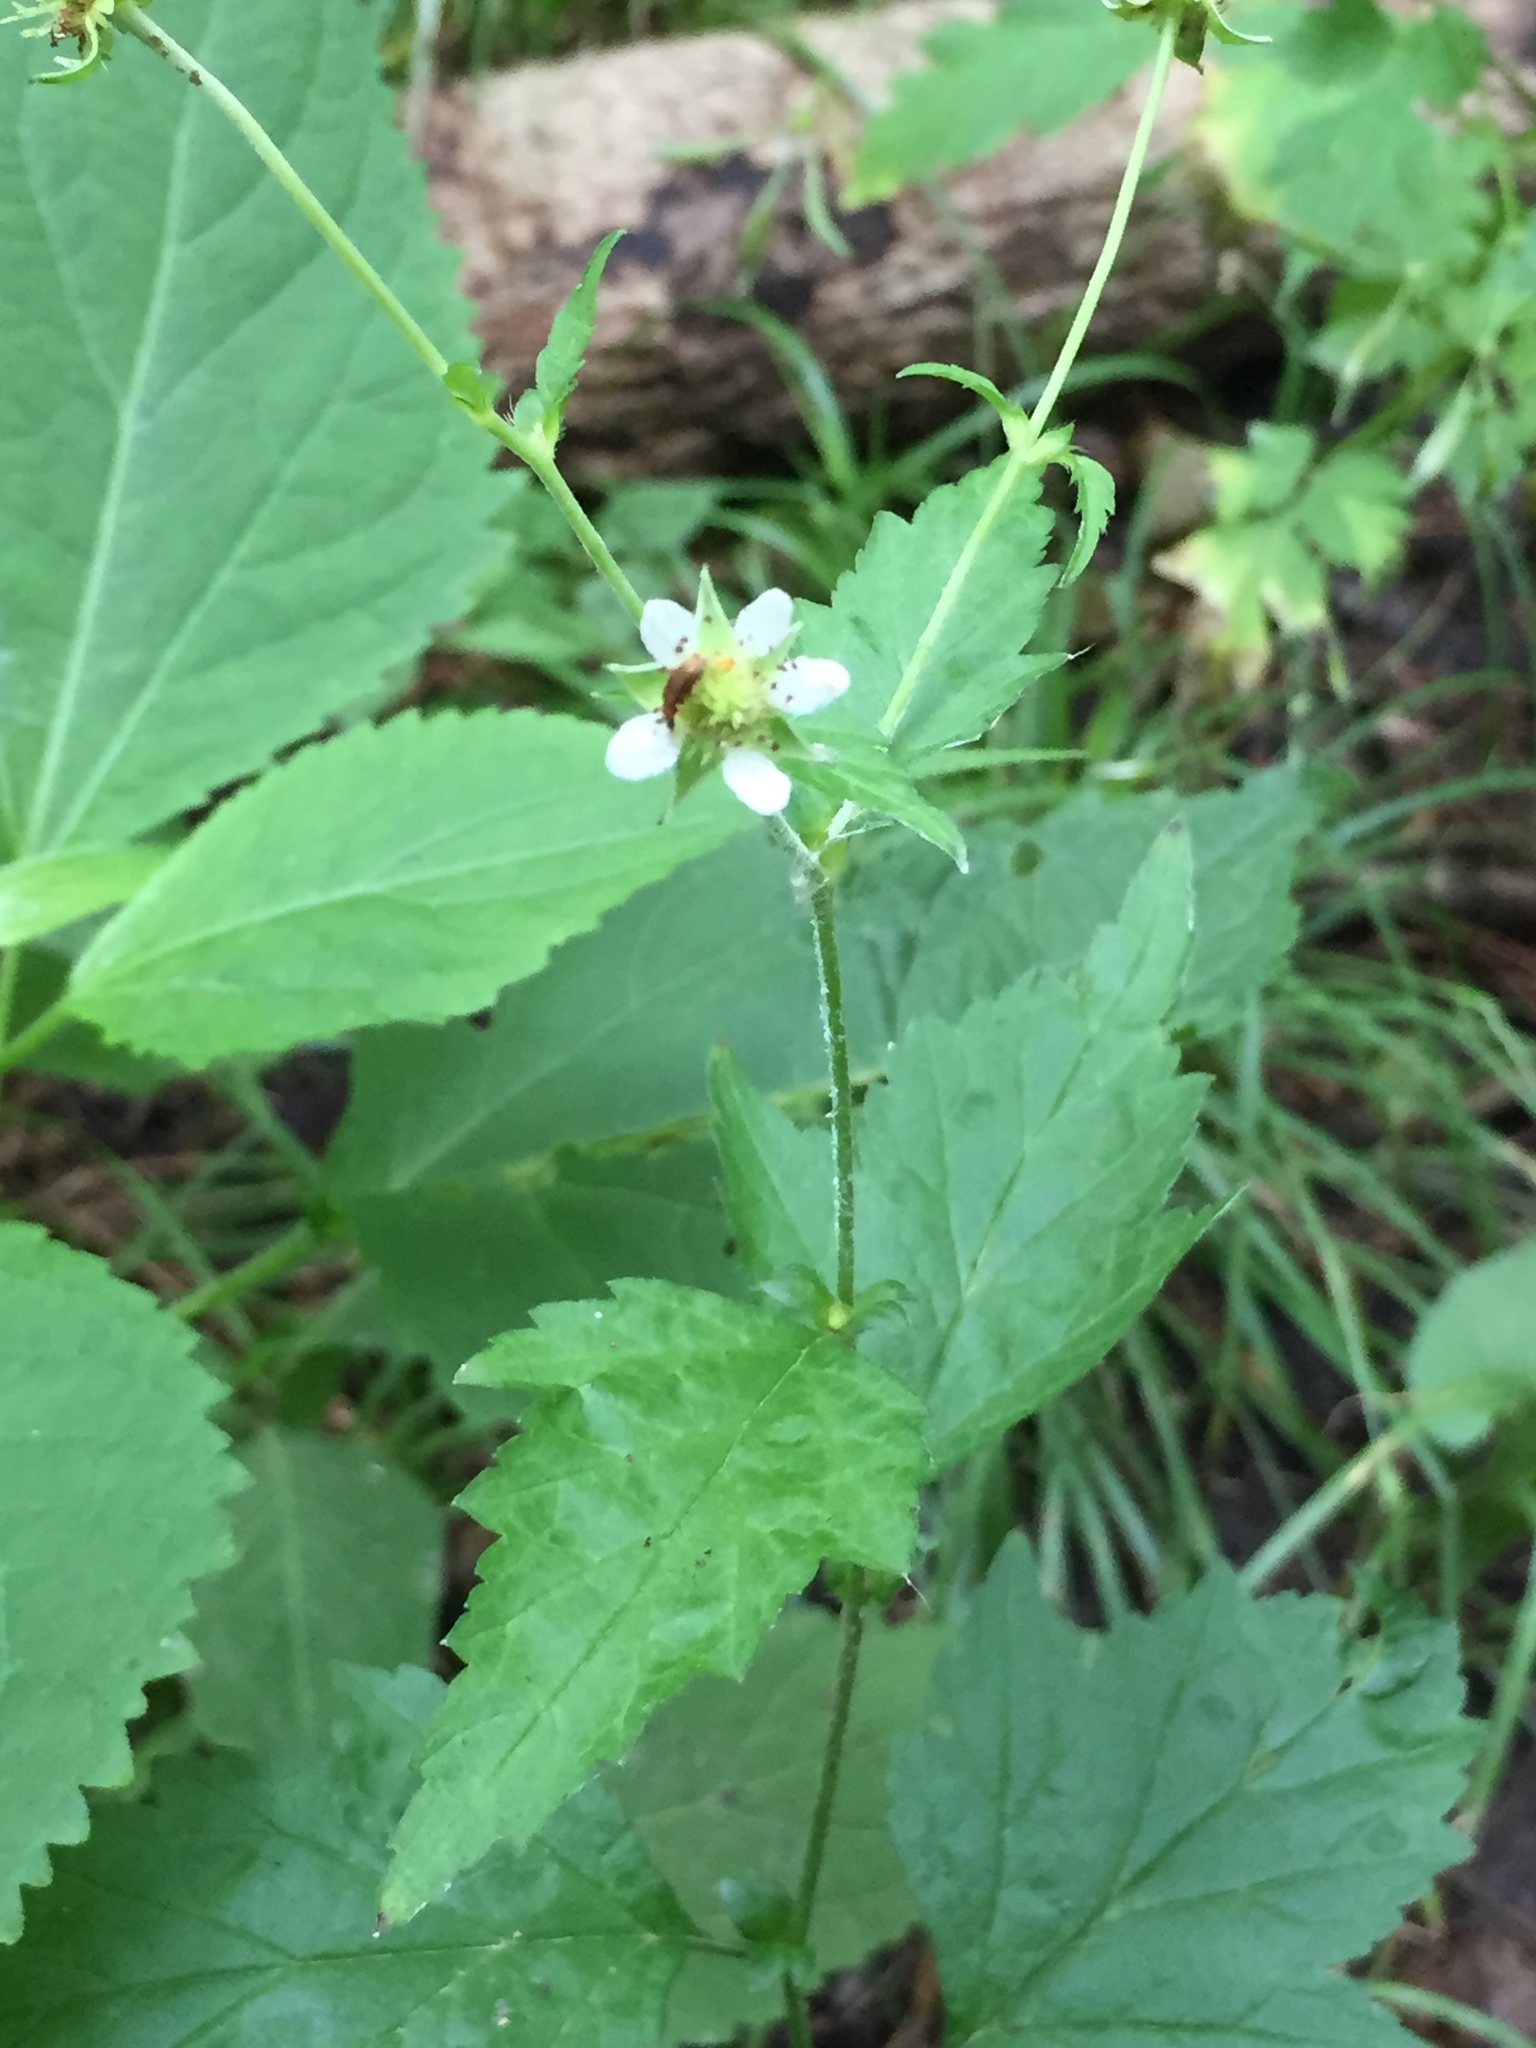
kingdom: Plantae
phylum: Tracheophyta
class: Magnoliopsida
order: Rosales
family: Rosaceae
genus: Geum
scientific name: Geum canadense
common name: White avens
